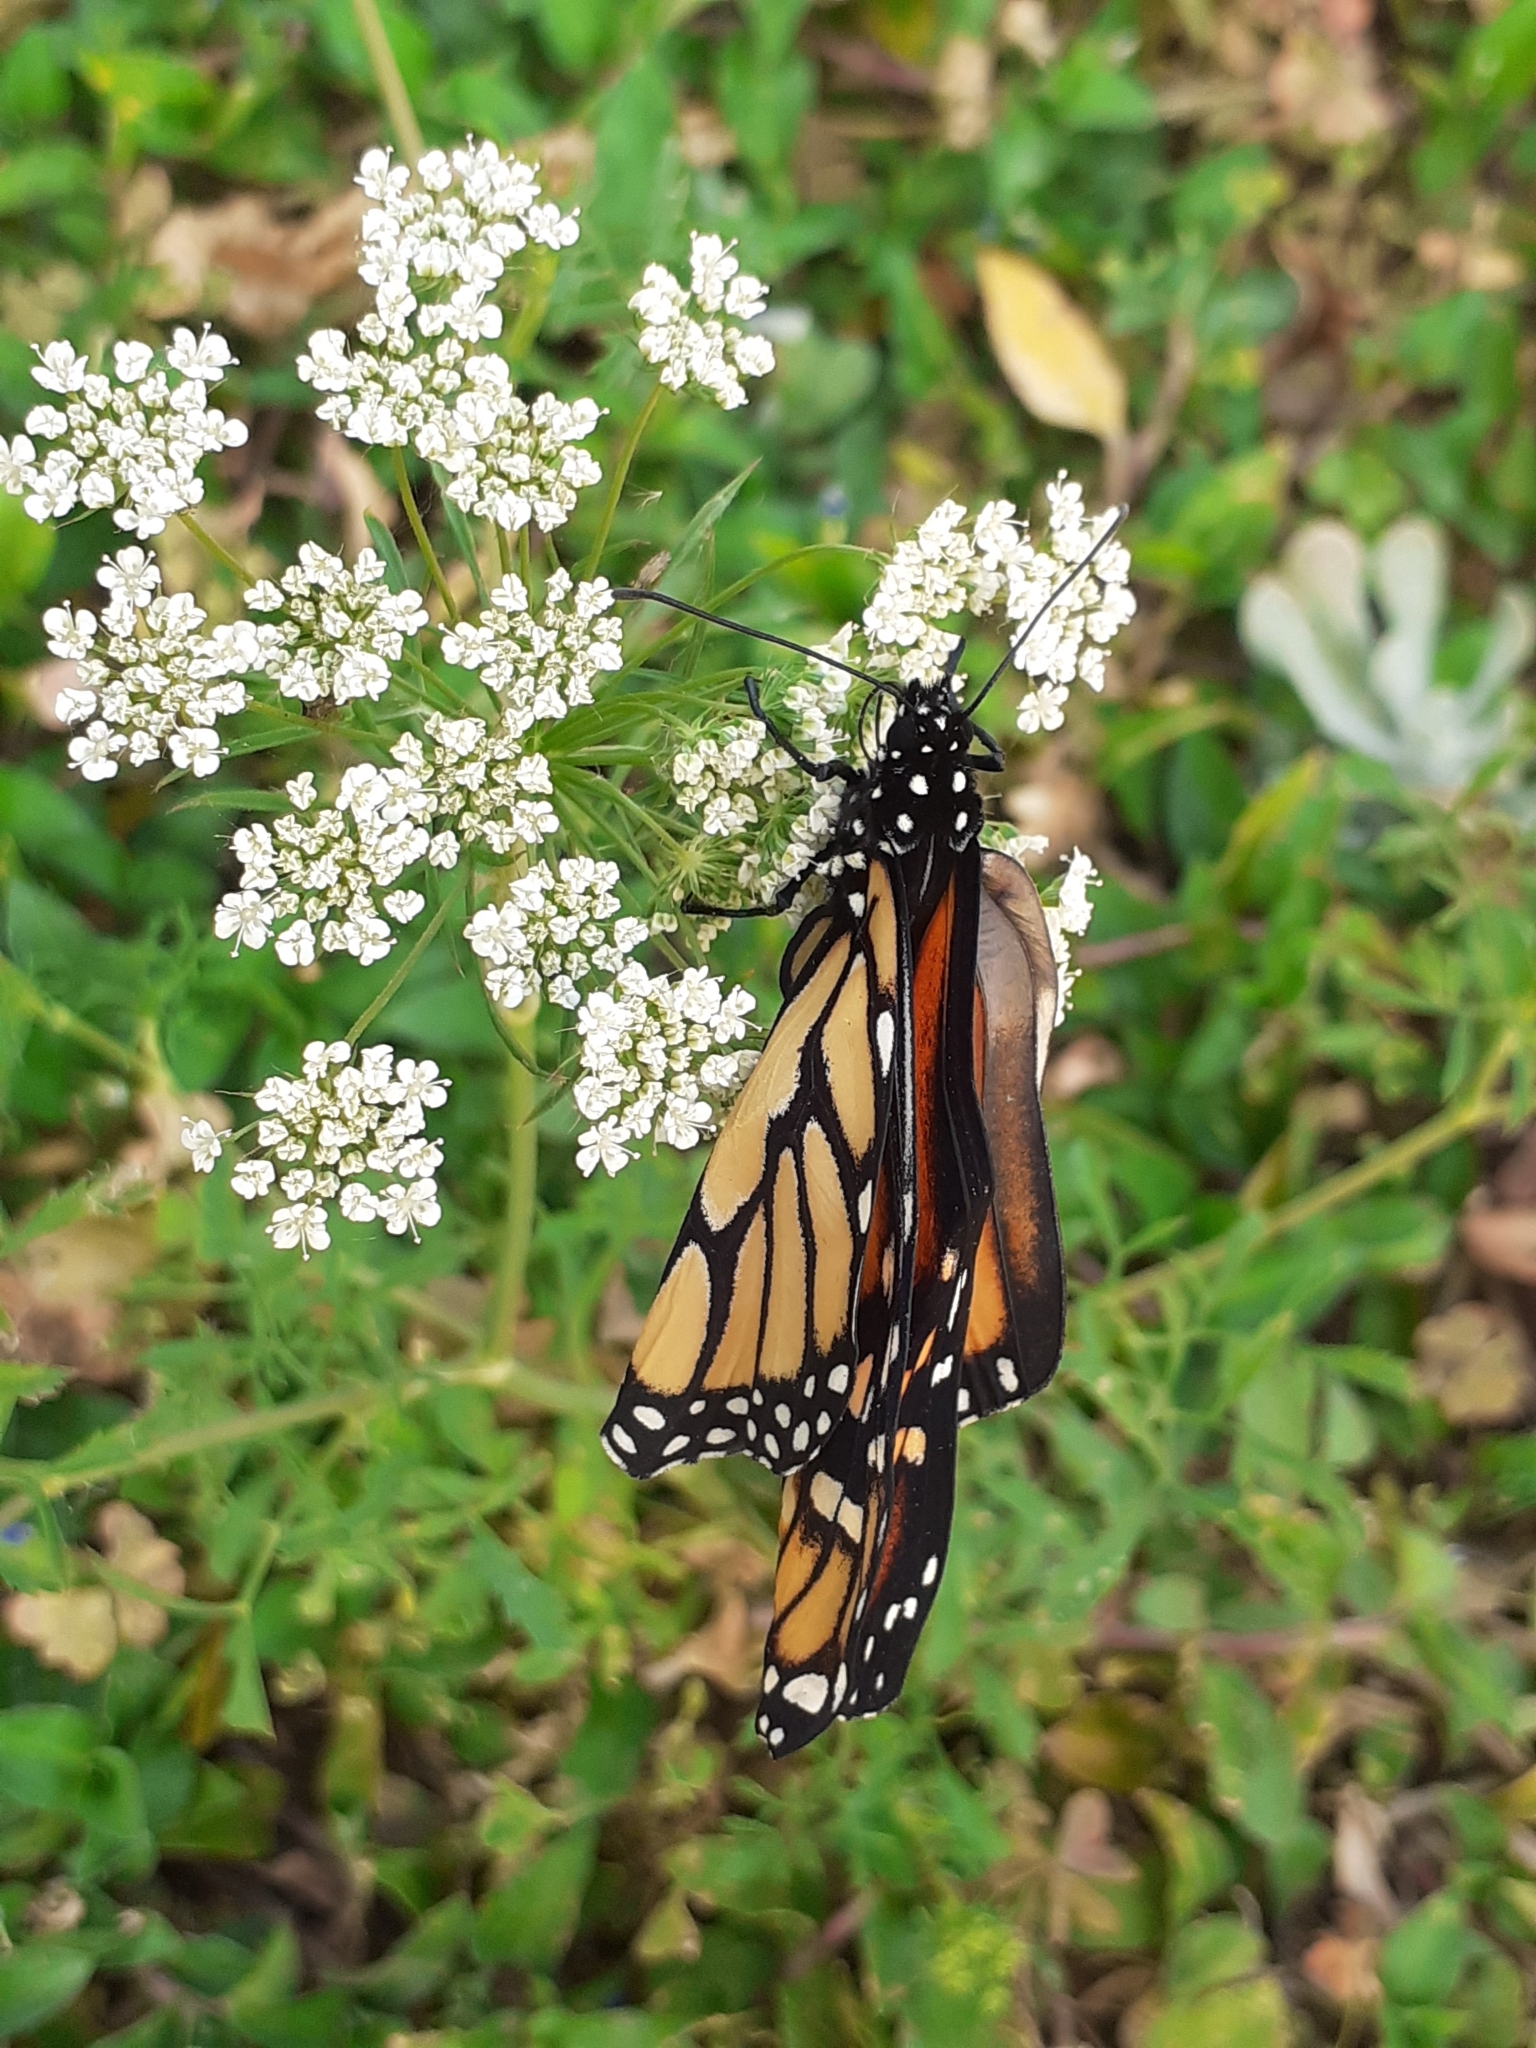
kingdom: Animalia
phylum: Arthropoda
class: Insecta
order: Lepidoptera
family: Nymphalidae
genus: Danaus
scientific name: Danaus plexippus
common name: Monarch
